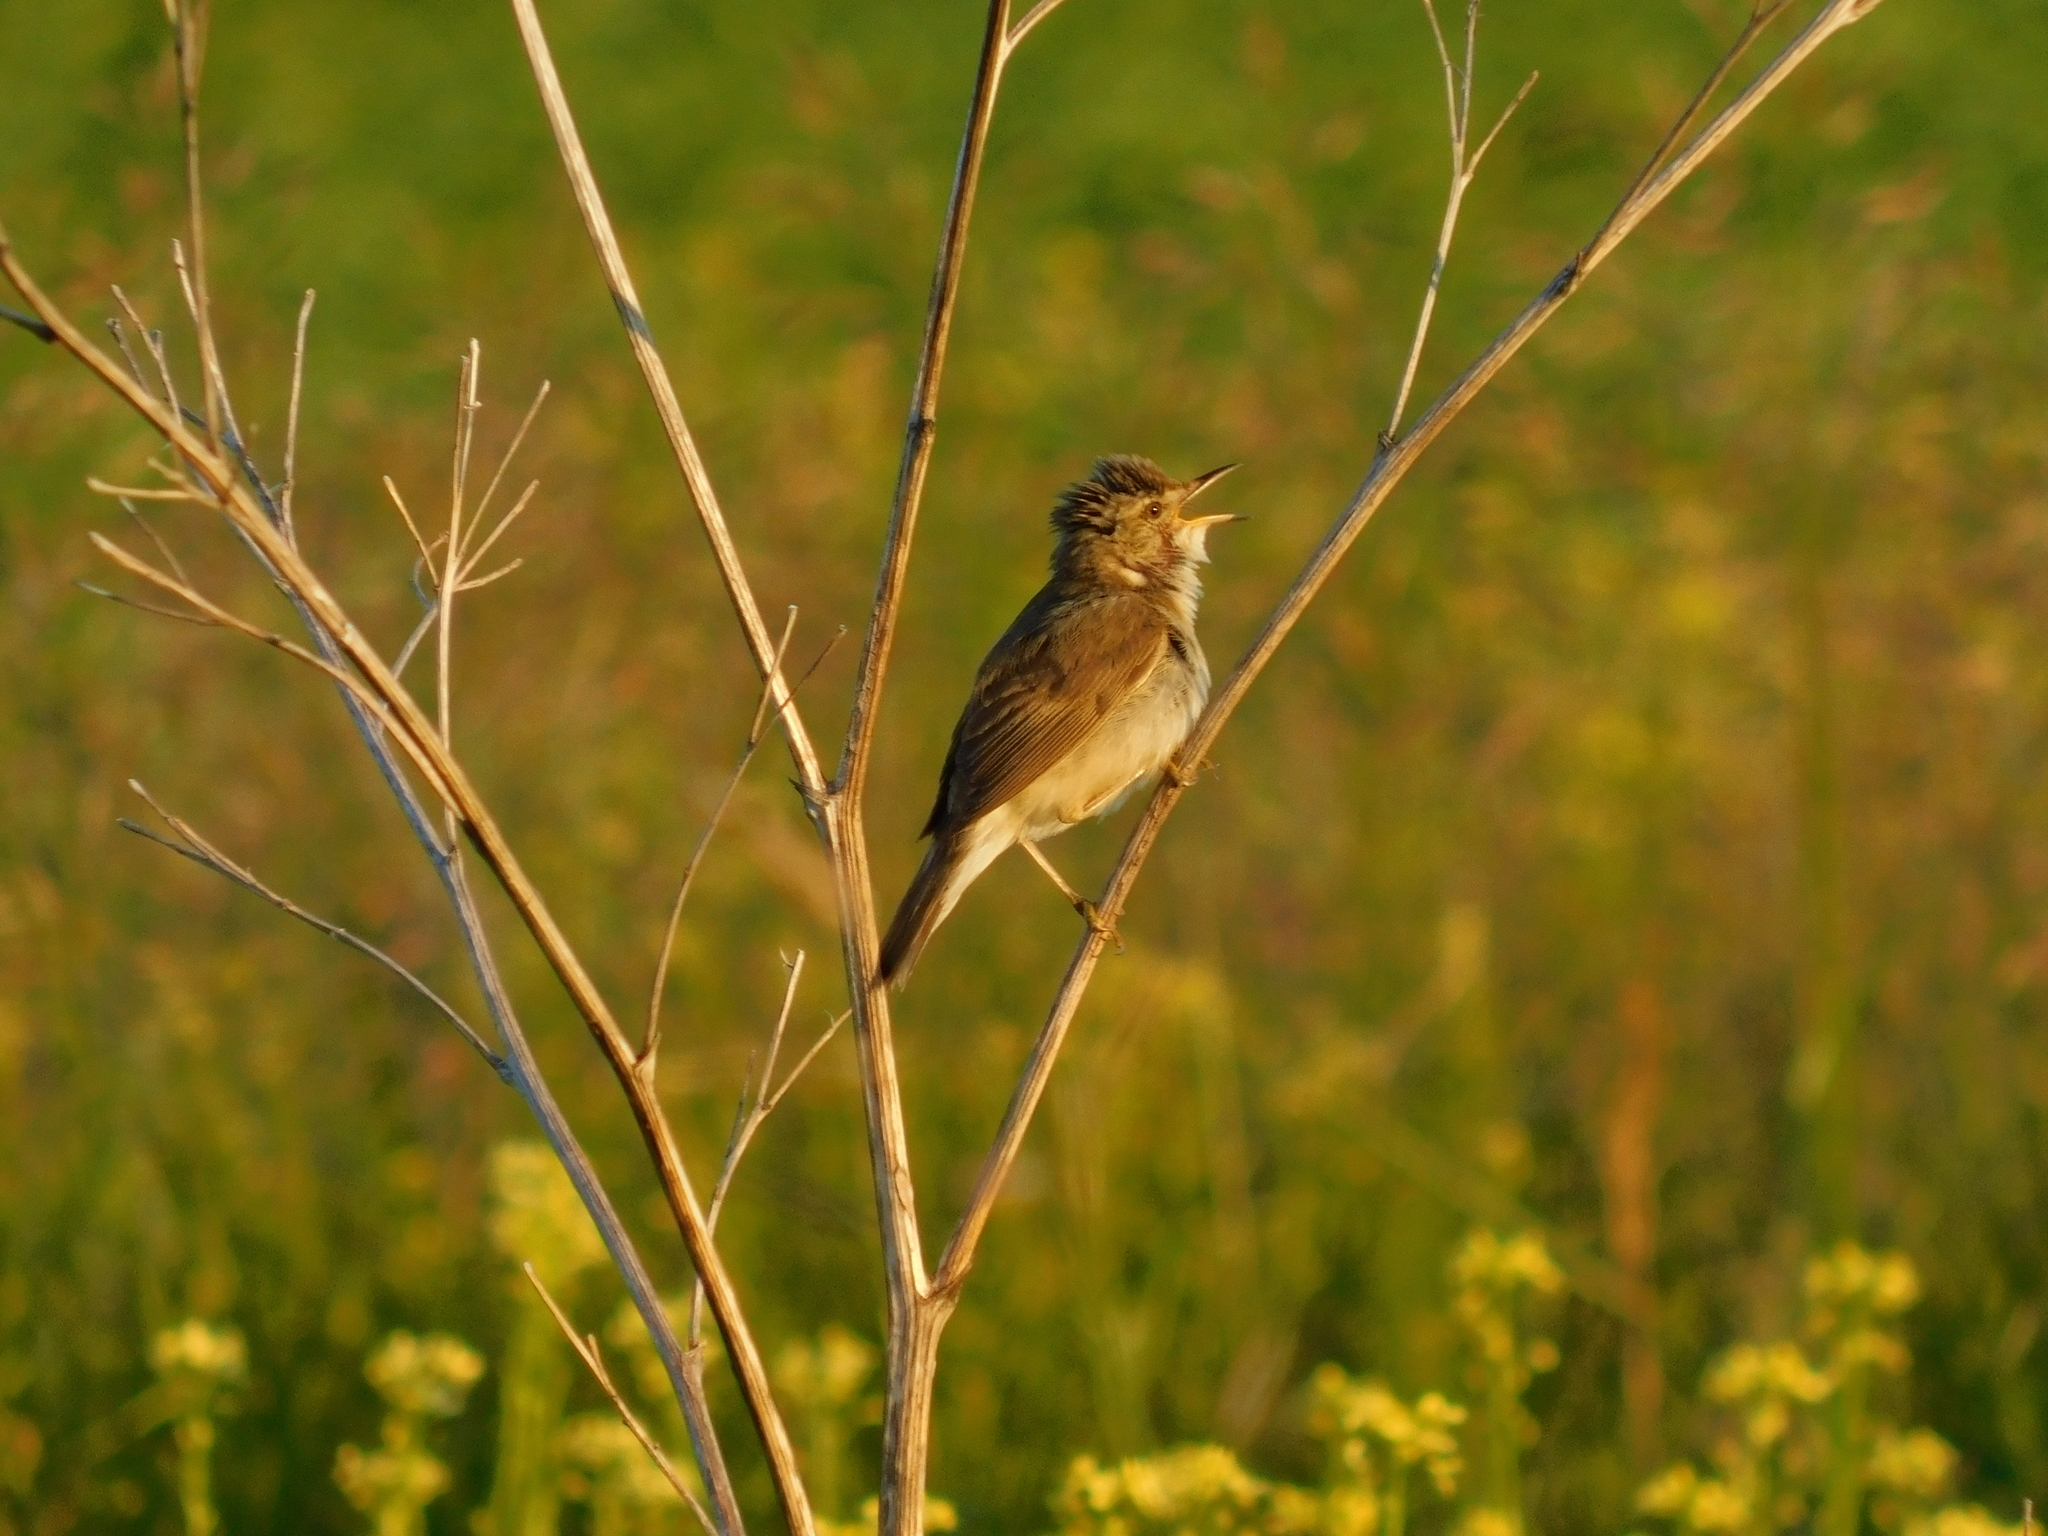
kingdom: Animalia
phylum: Chordata
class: Aves
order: Passeriformes
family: Acrocephalidae
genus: Acrocephalus
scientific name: Acrocephalus dumetorum
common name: Blyth's reed warbler
